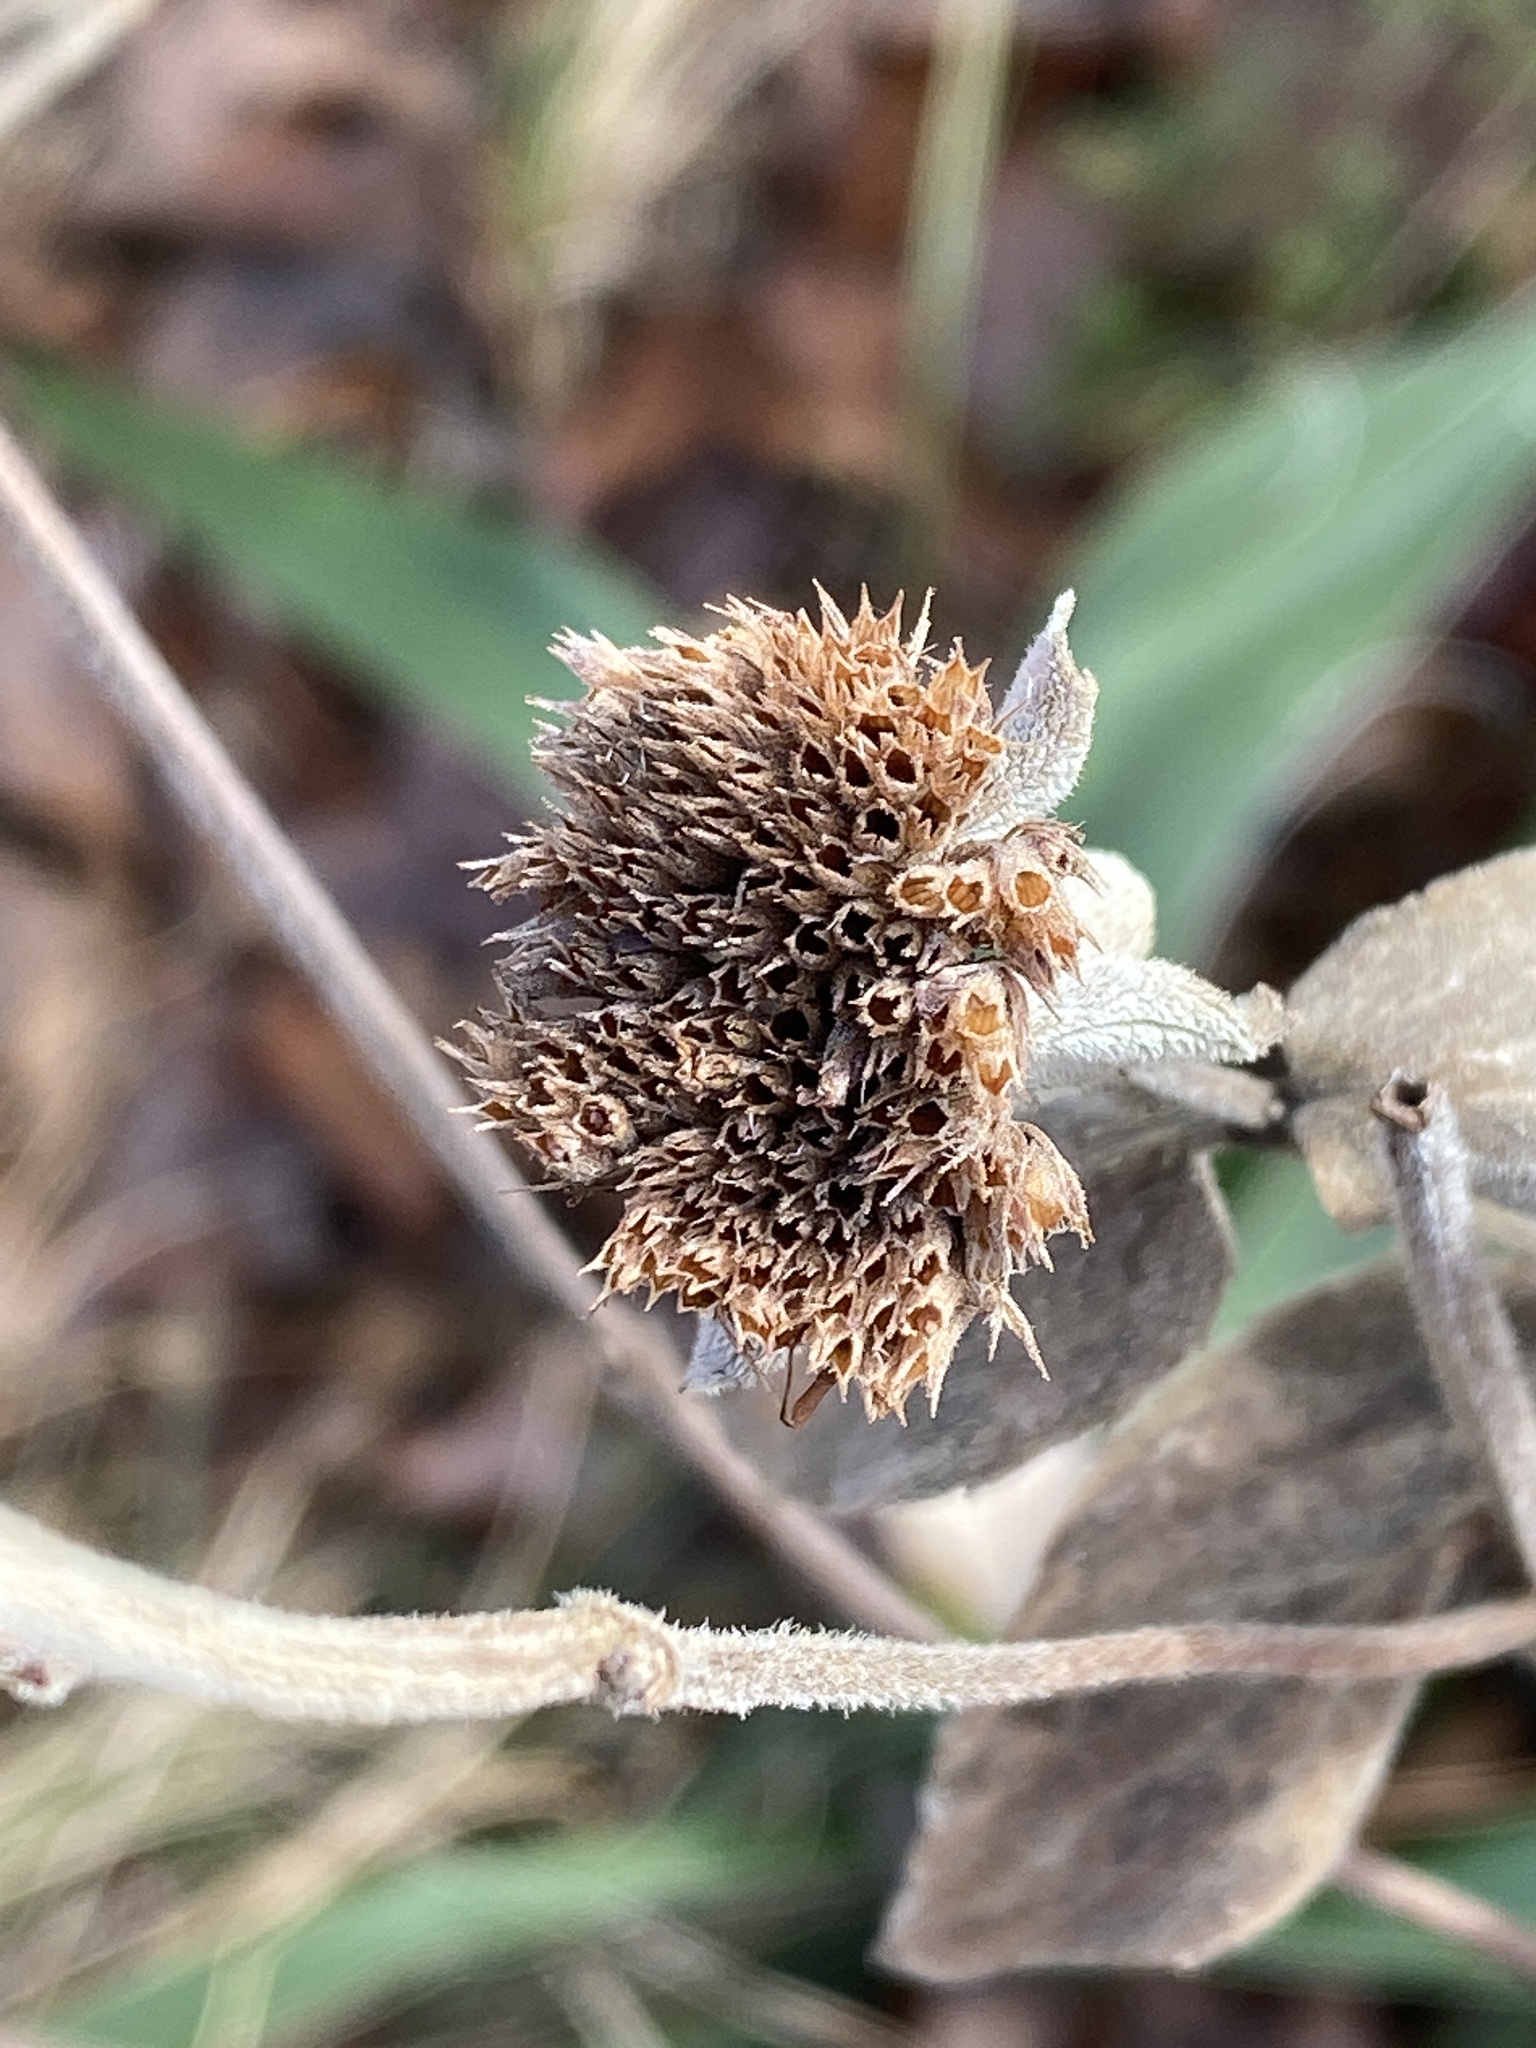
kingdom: Plantae
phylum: Tracheophyta
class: Magnoliopsida
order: Lamiales
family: Lamiaceae
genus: Pycnanthemum
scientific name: Pycnanthemum pycnanthemoides
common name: Southern mountain-mint
